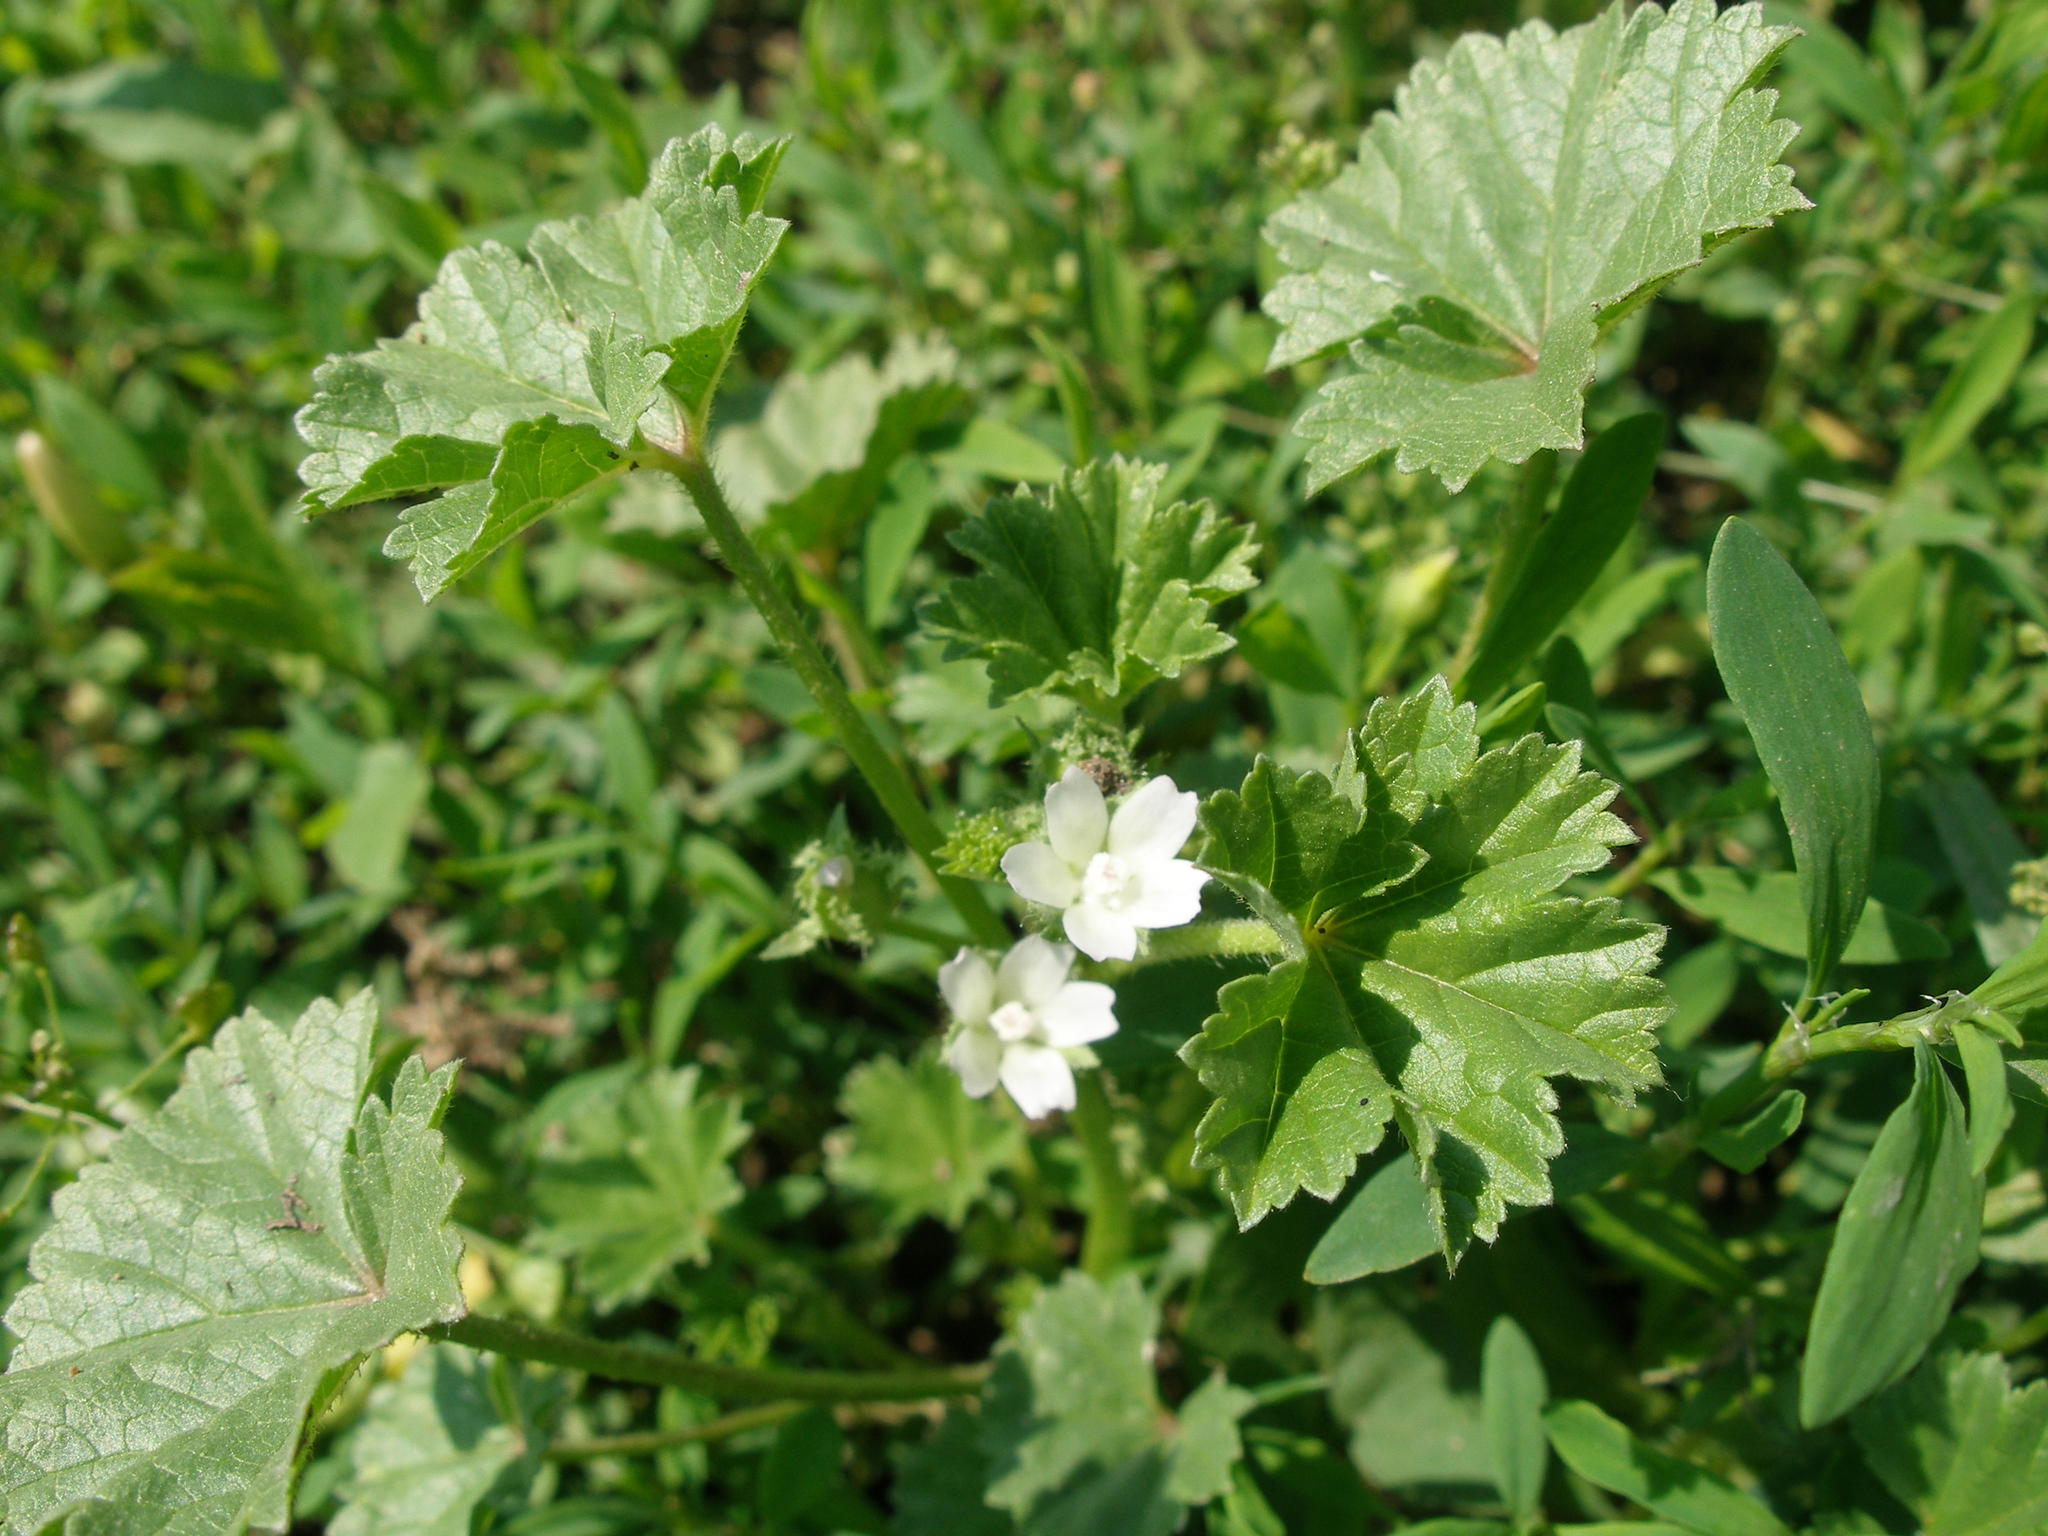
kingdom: Plantae
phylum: Tracheophyta
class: Magnoliopsida
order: Malvales
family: Malvaceae
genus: Malva
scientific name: Malva pusilla
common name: Small mallow
